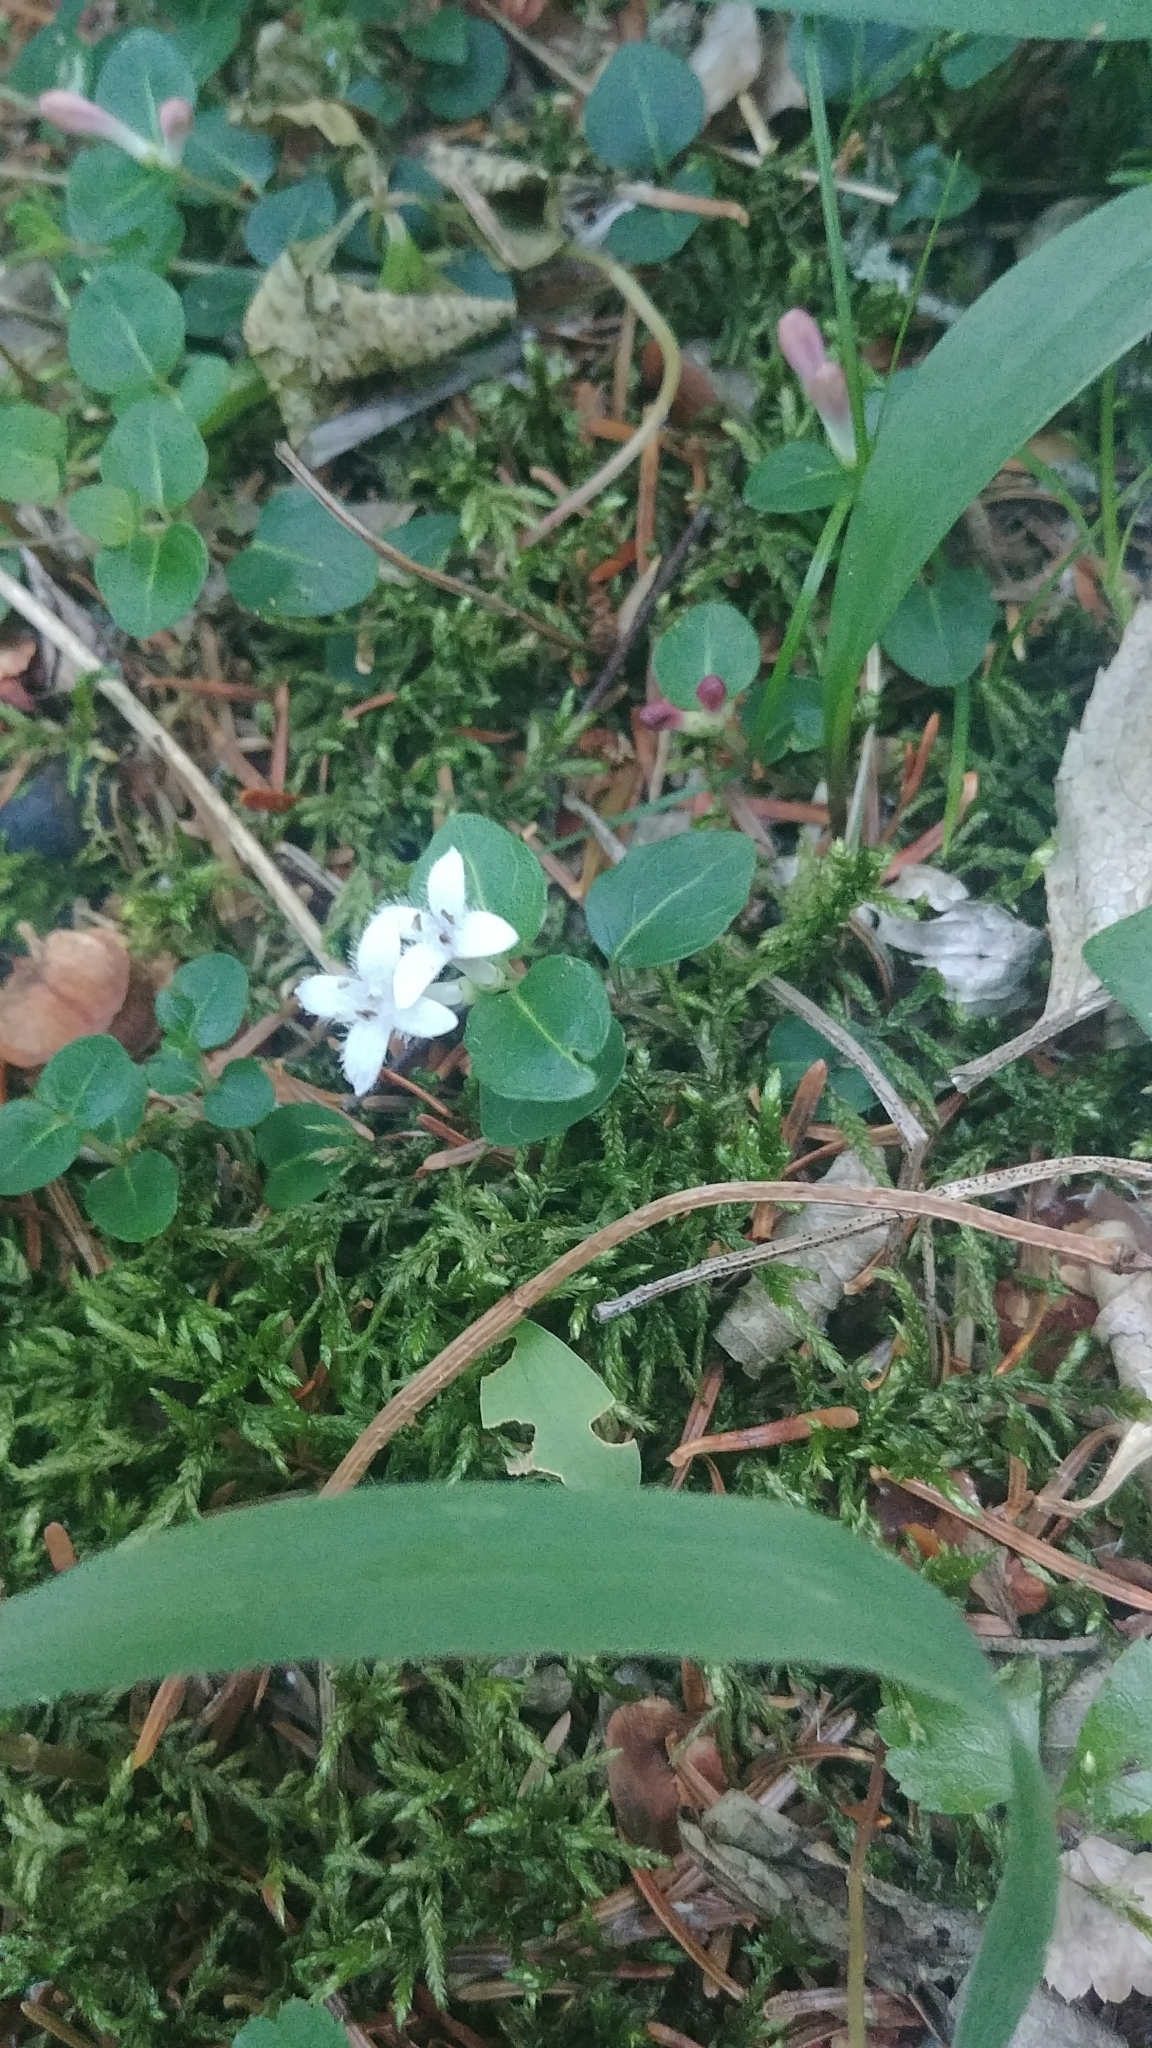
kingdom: Plantae
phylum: Tracheophyta
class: Magnoliopsida
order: Gentianales
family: Rubiaceae
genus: Mitchella
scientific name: Mitchella repens
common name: Partridge-berry
